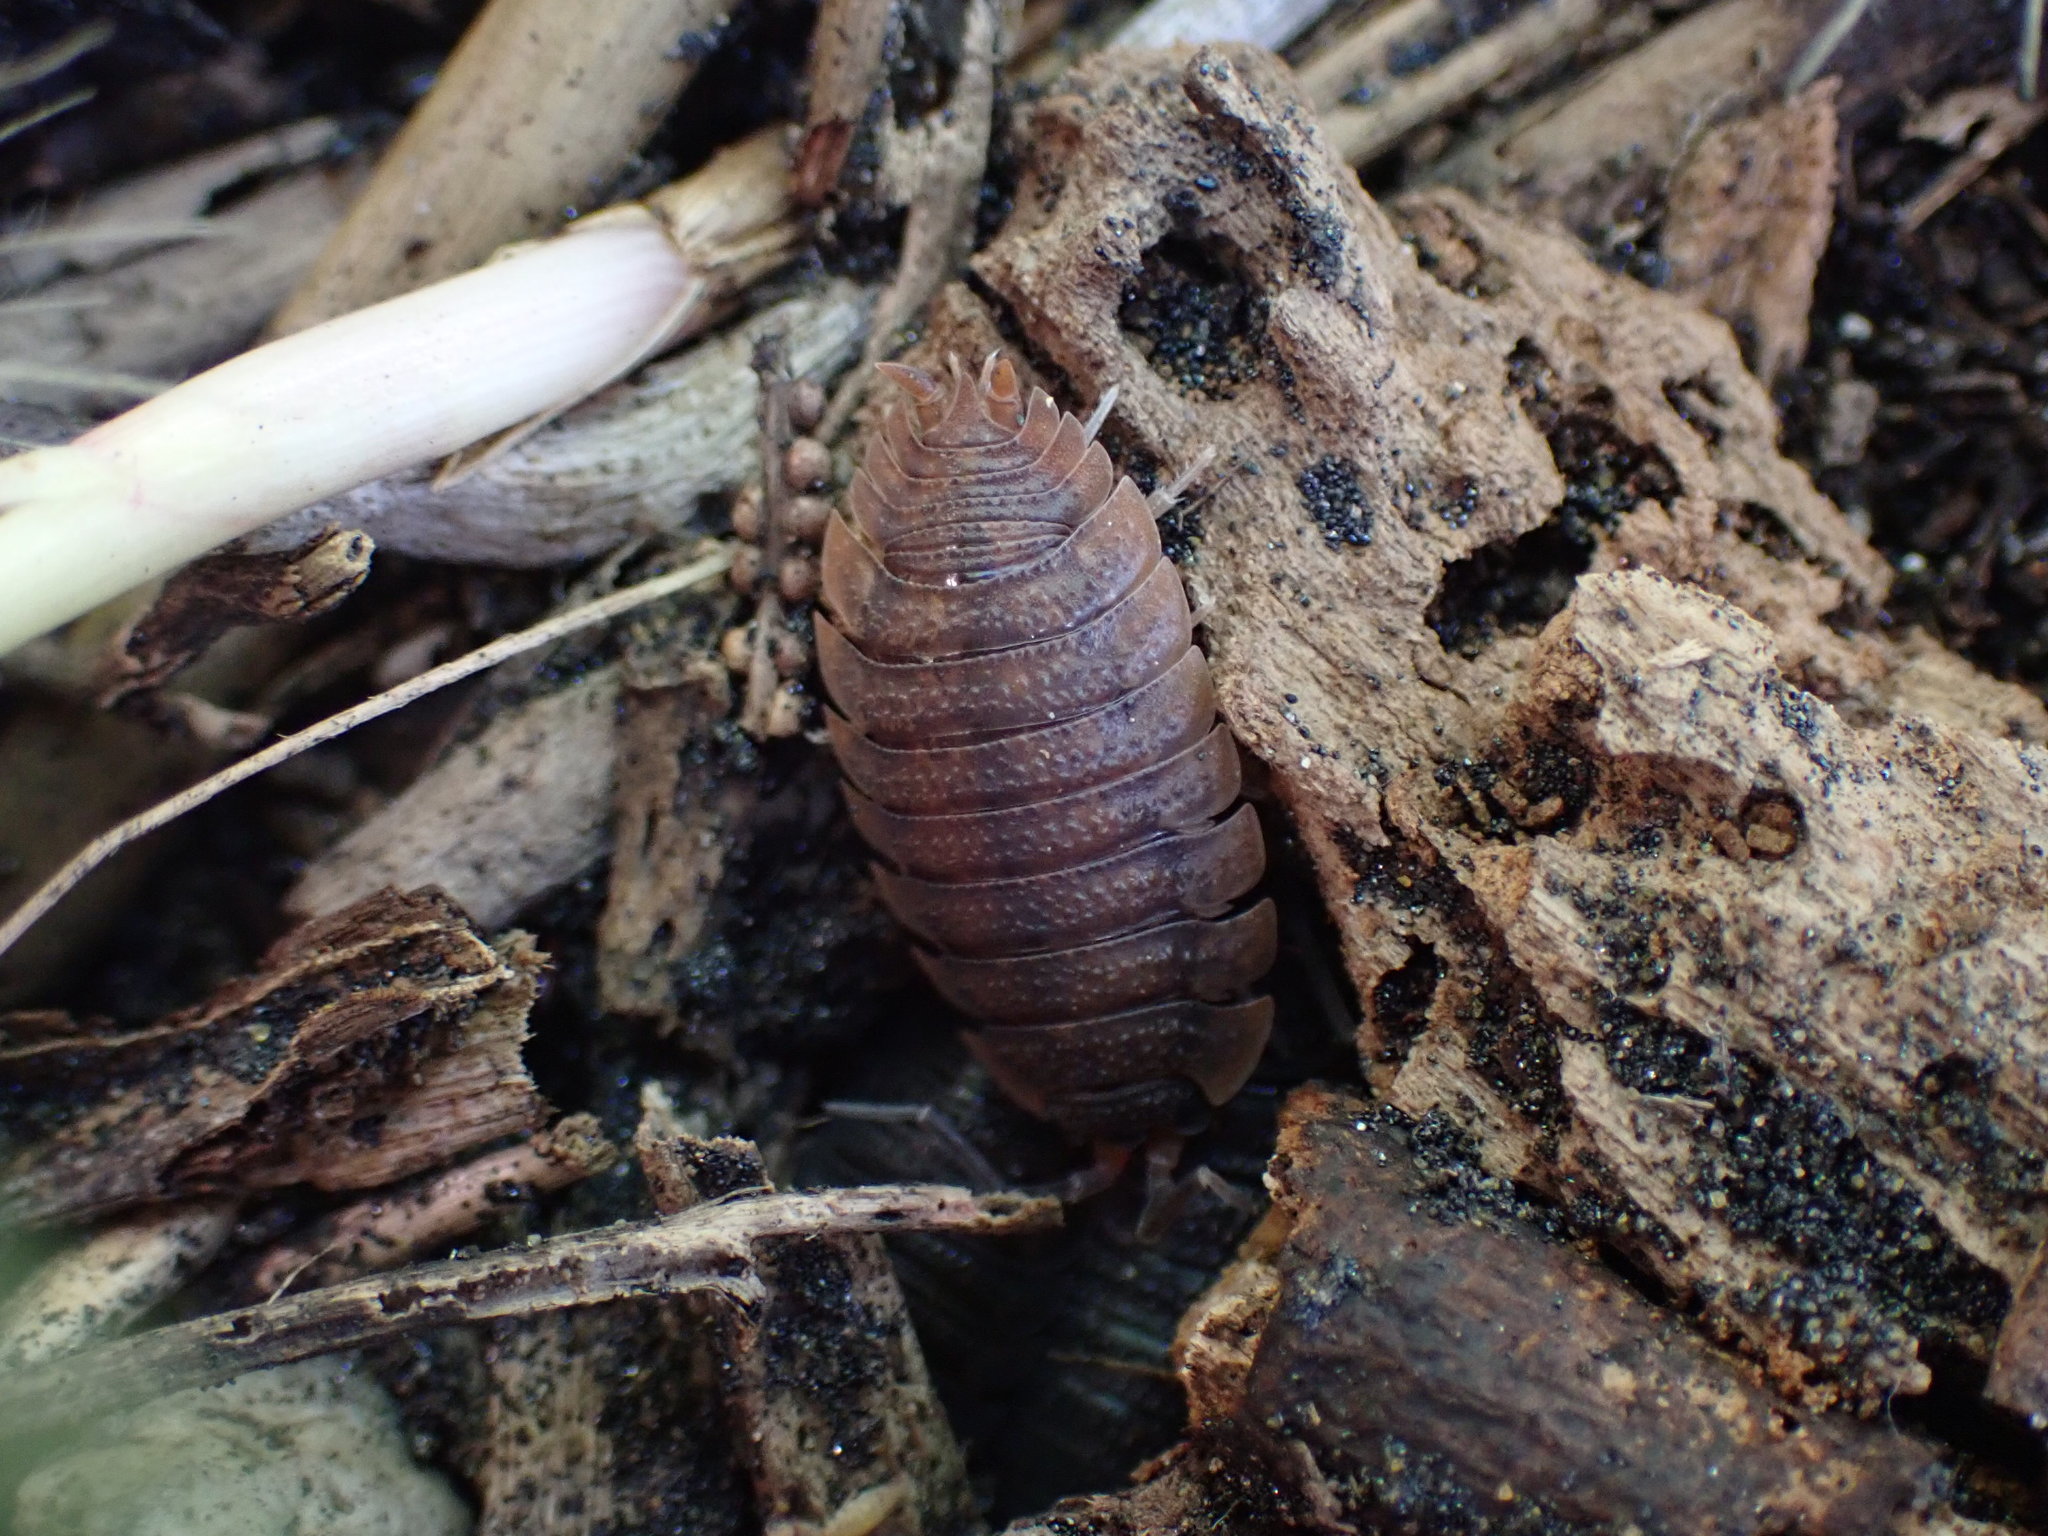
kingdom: Animalia
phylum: Arthropoda
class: Malacostraca
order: Isopoda
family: Porcellionidae
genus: Porcellio
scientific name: Porcellio scaber
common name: Common rough woodlouse
